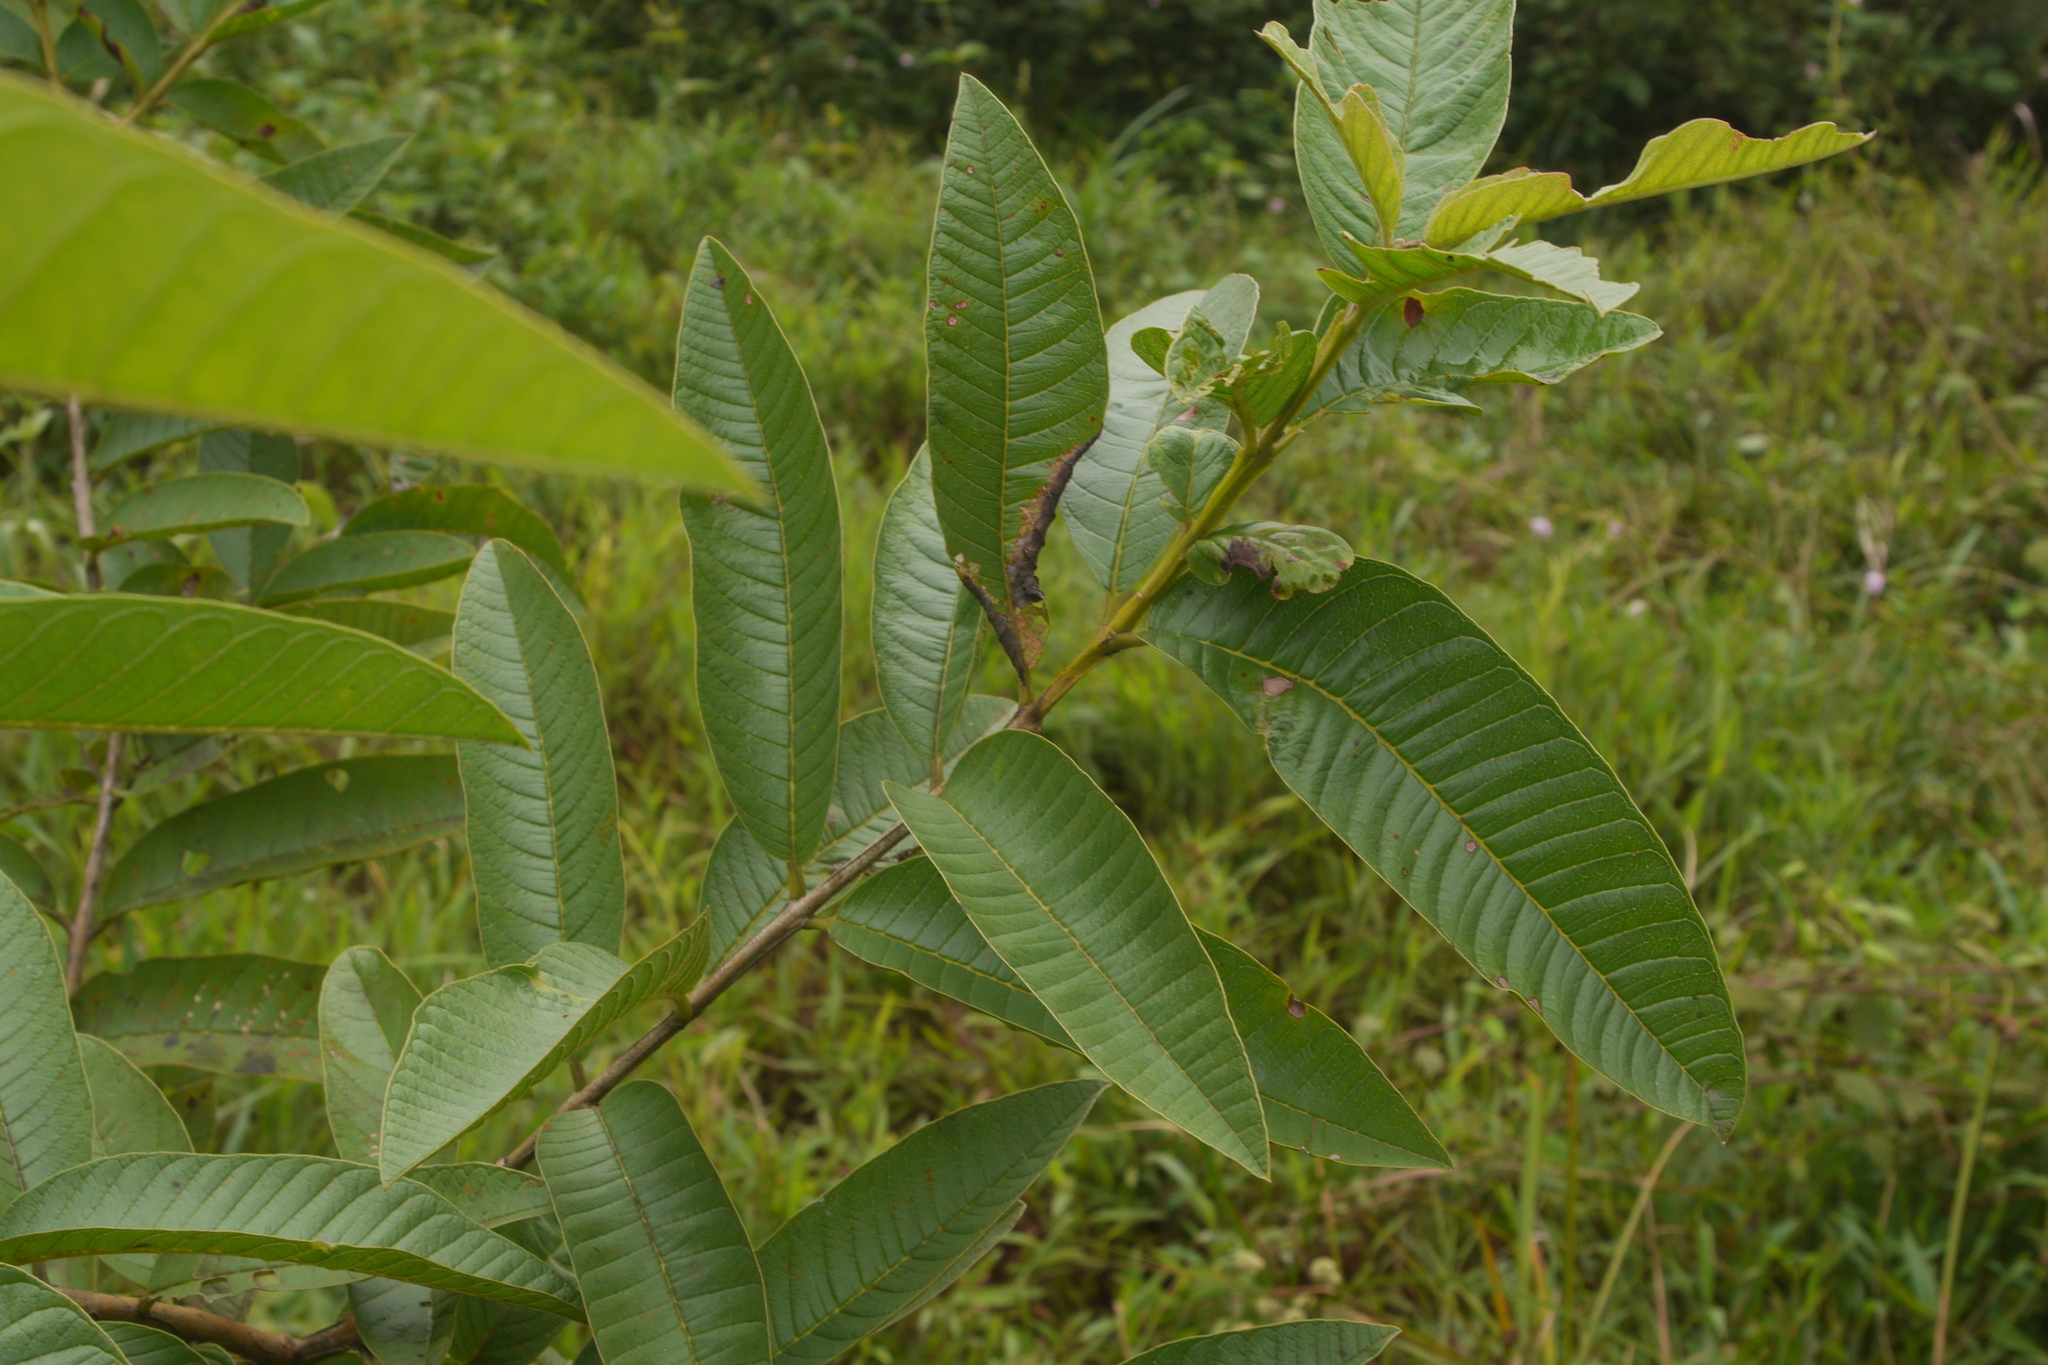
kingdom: Plantae
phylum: Tracheophyta
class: Magnoliopsida
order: Myrtales
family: Myrtaceae
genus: Psidium
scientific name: Psidium guajava
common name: Guava
